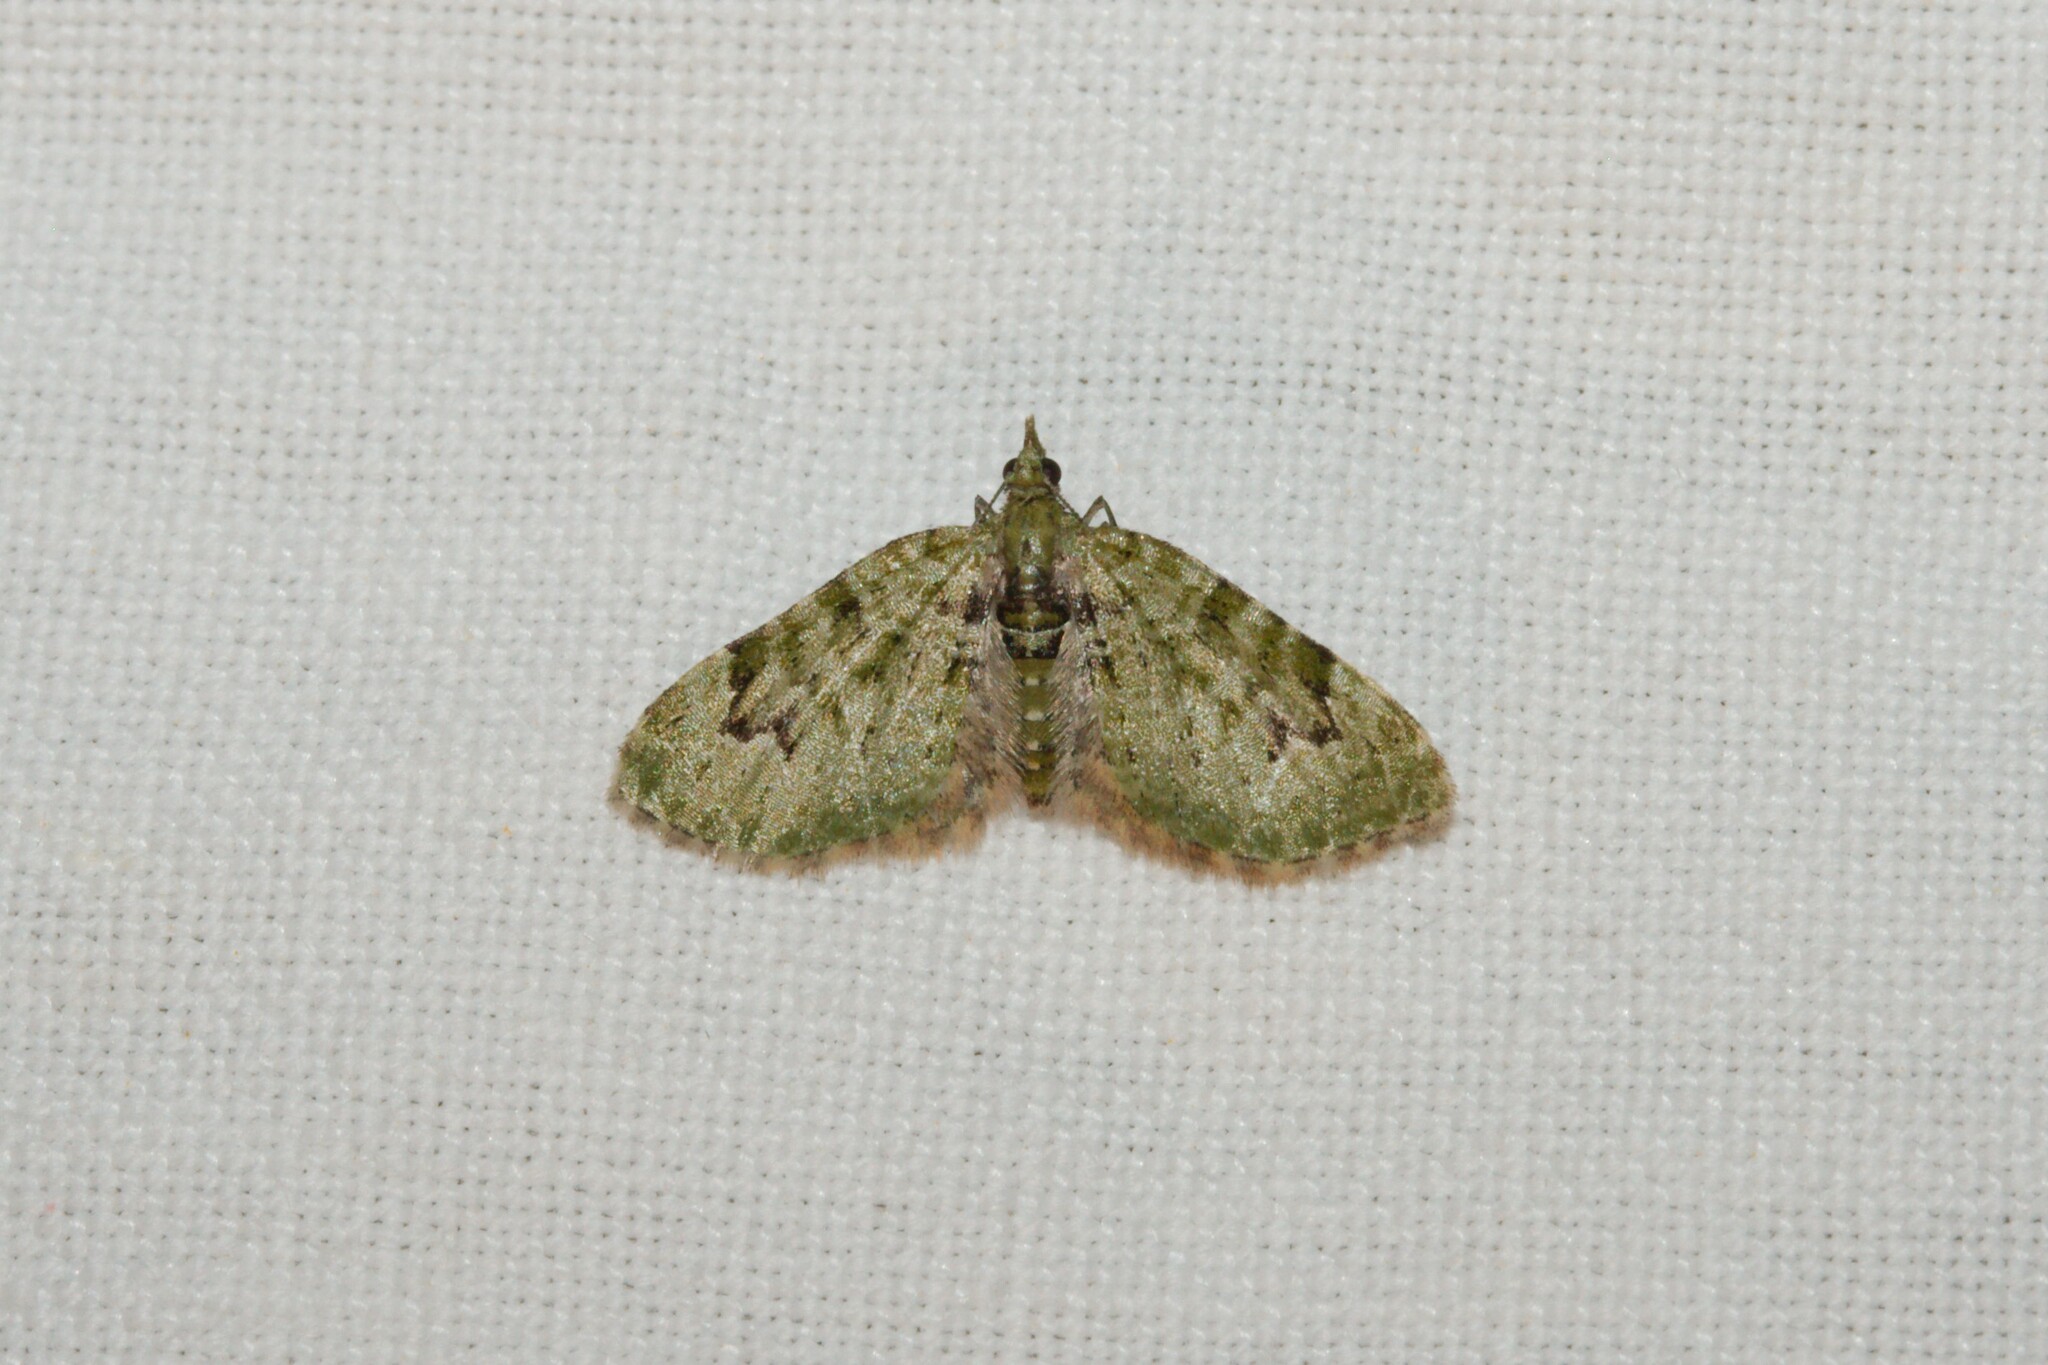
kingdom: Animalia
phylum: Arthropoda
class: Insecta
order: Lepidoptera
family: Geometridae
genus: Chloroclystis
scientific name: Chloroclystis v-ata
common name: V-pug
